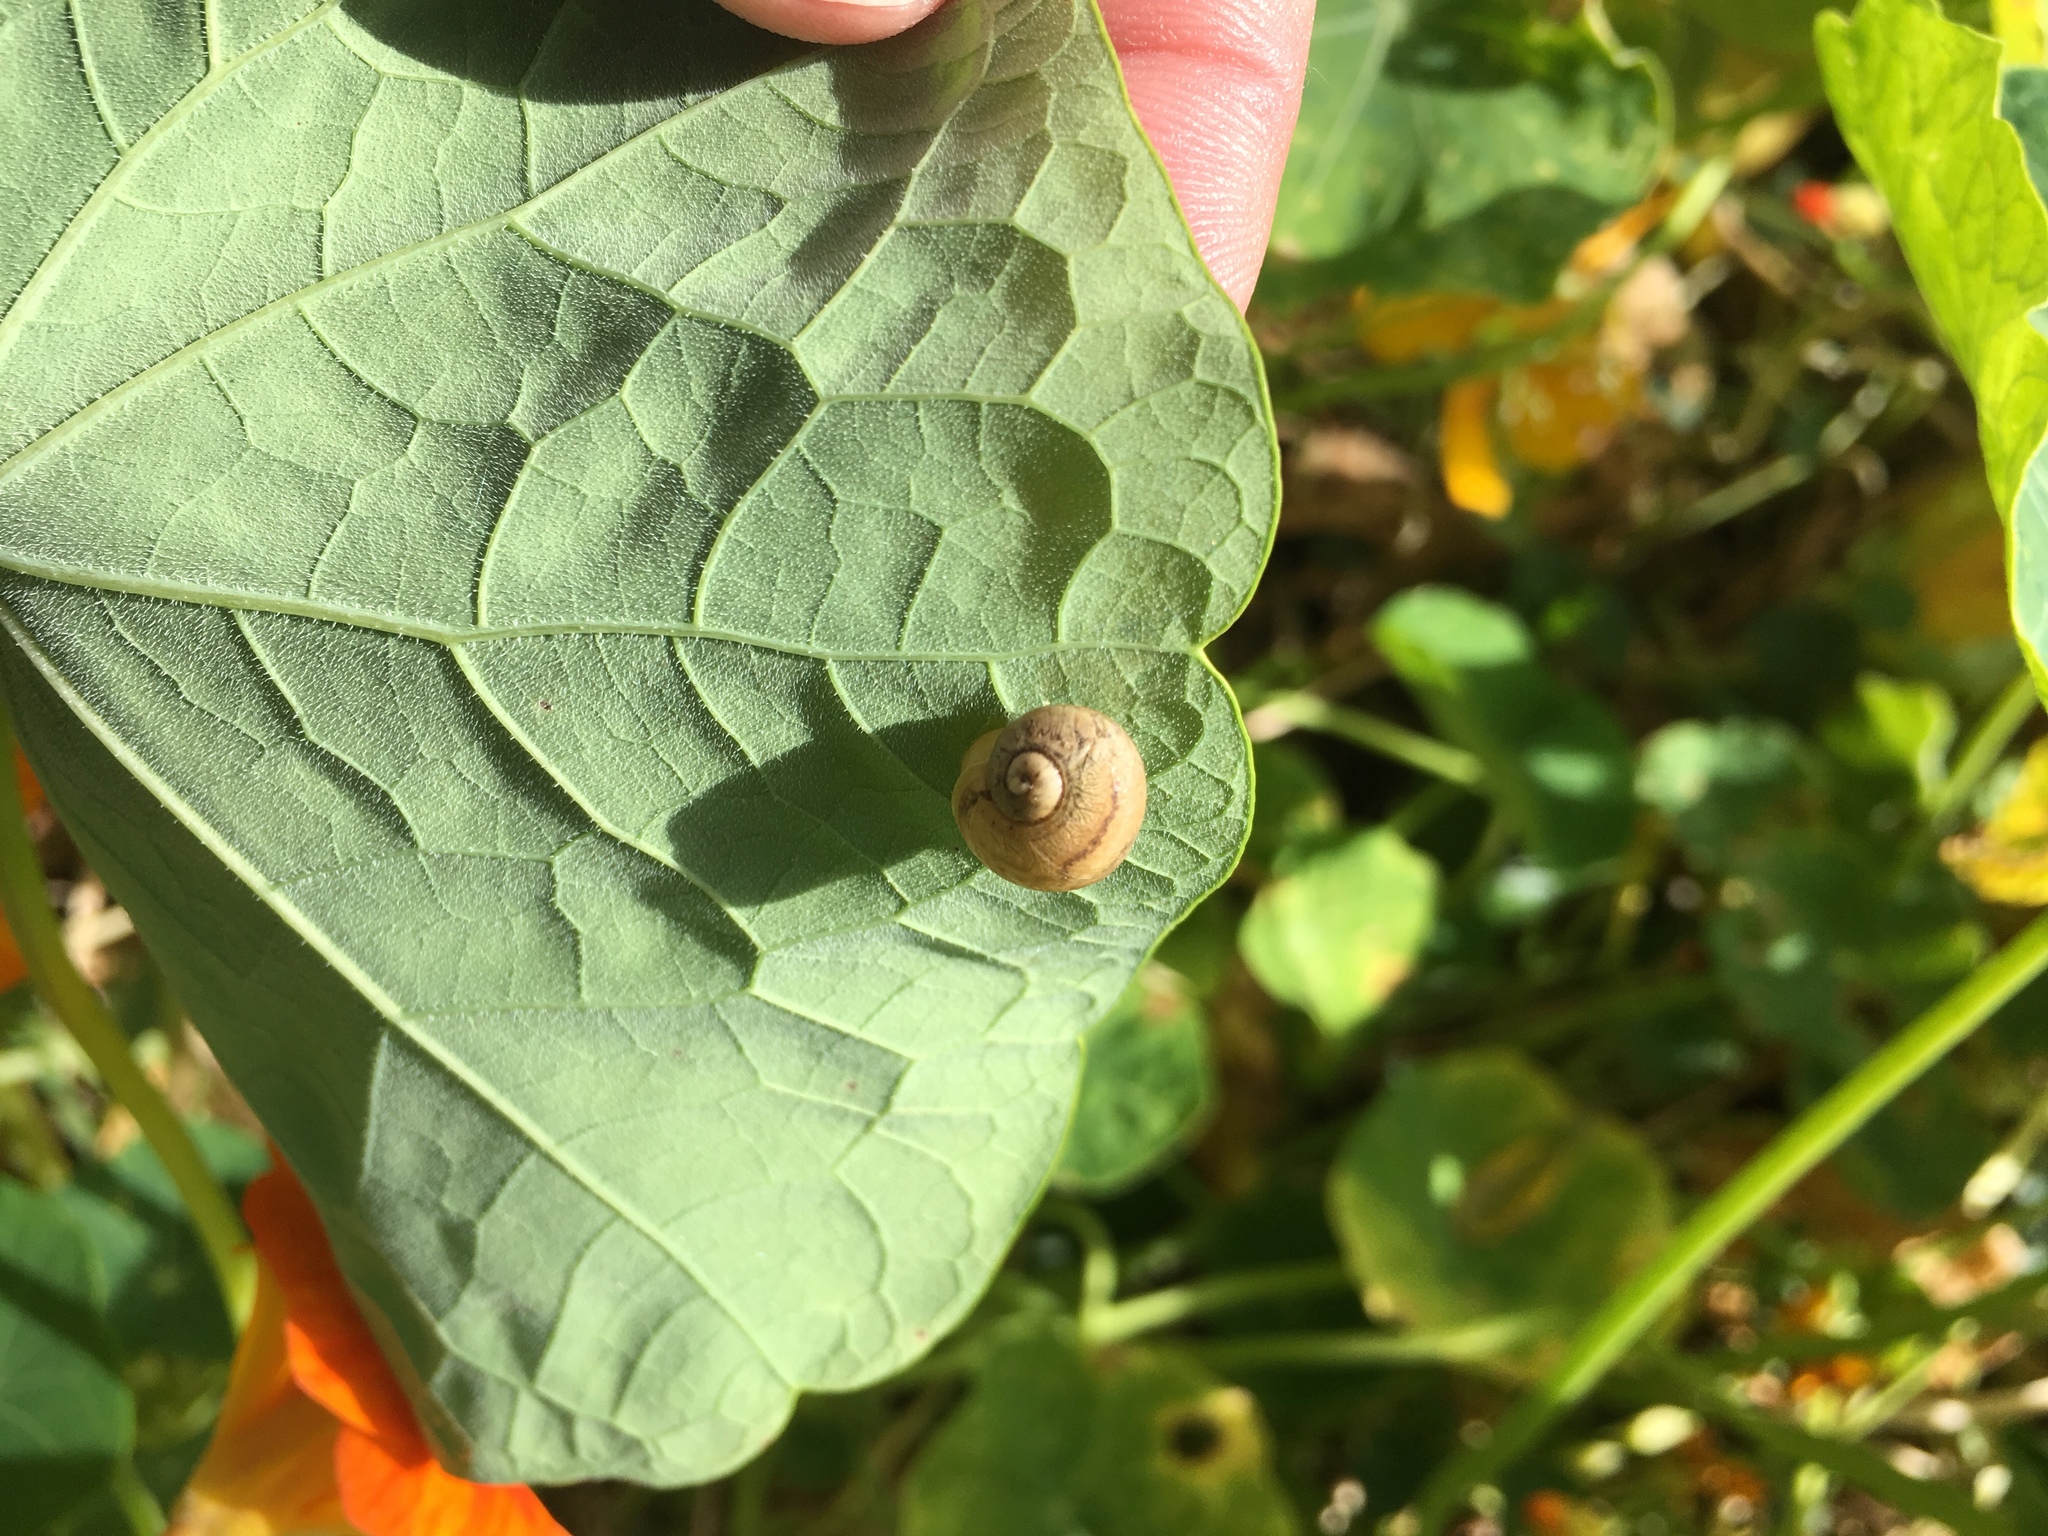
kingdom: Animalia
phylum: Mollusca
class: Gastropoda
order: Stylommatophora
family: Helicidae
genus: Cornu
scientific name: Cornu aspersum
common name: Brown garden snail
